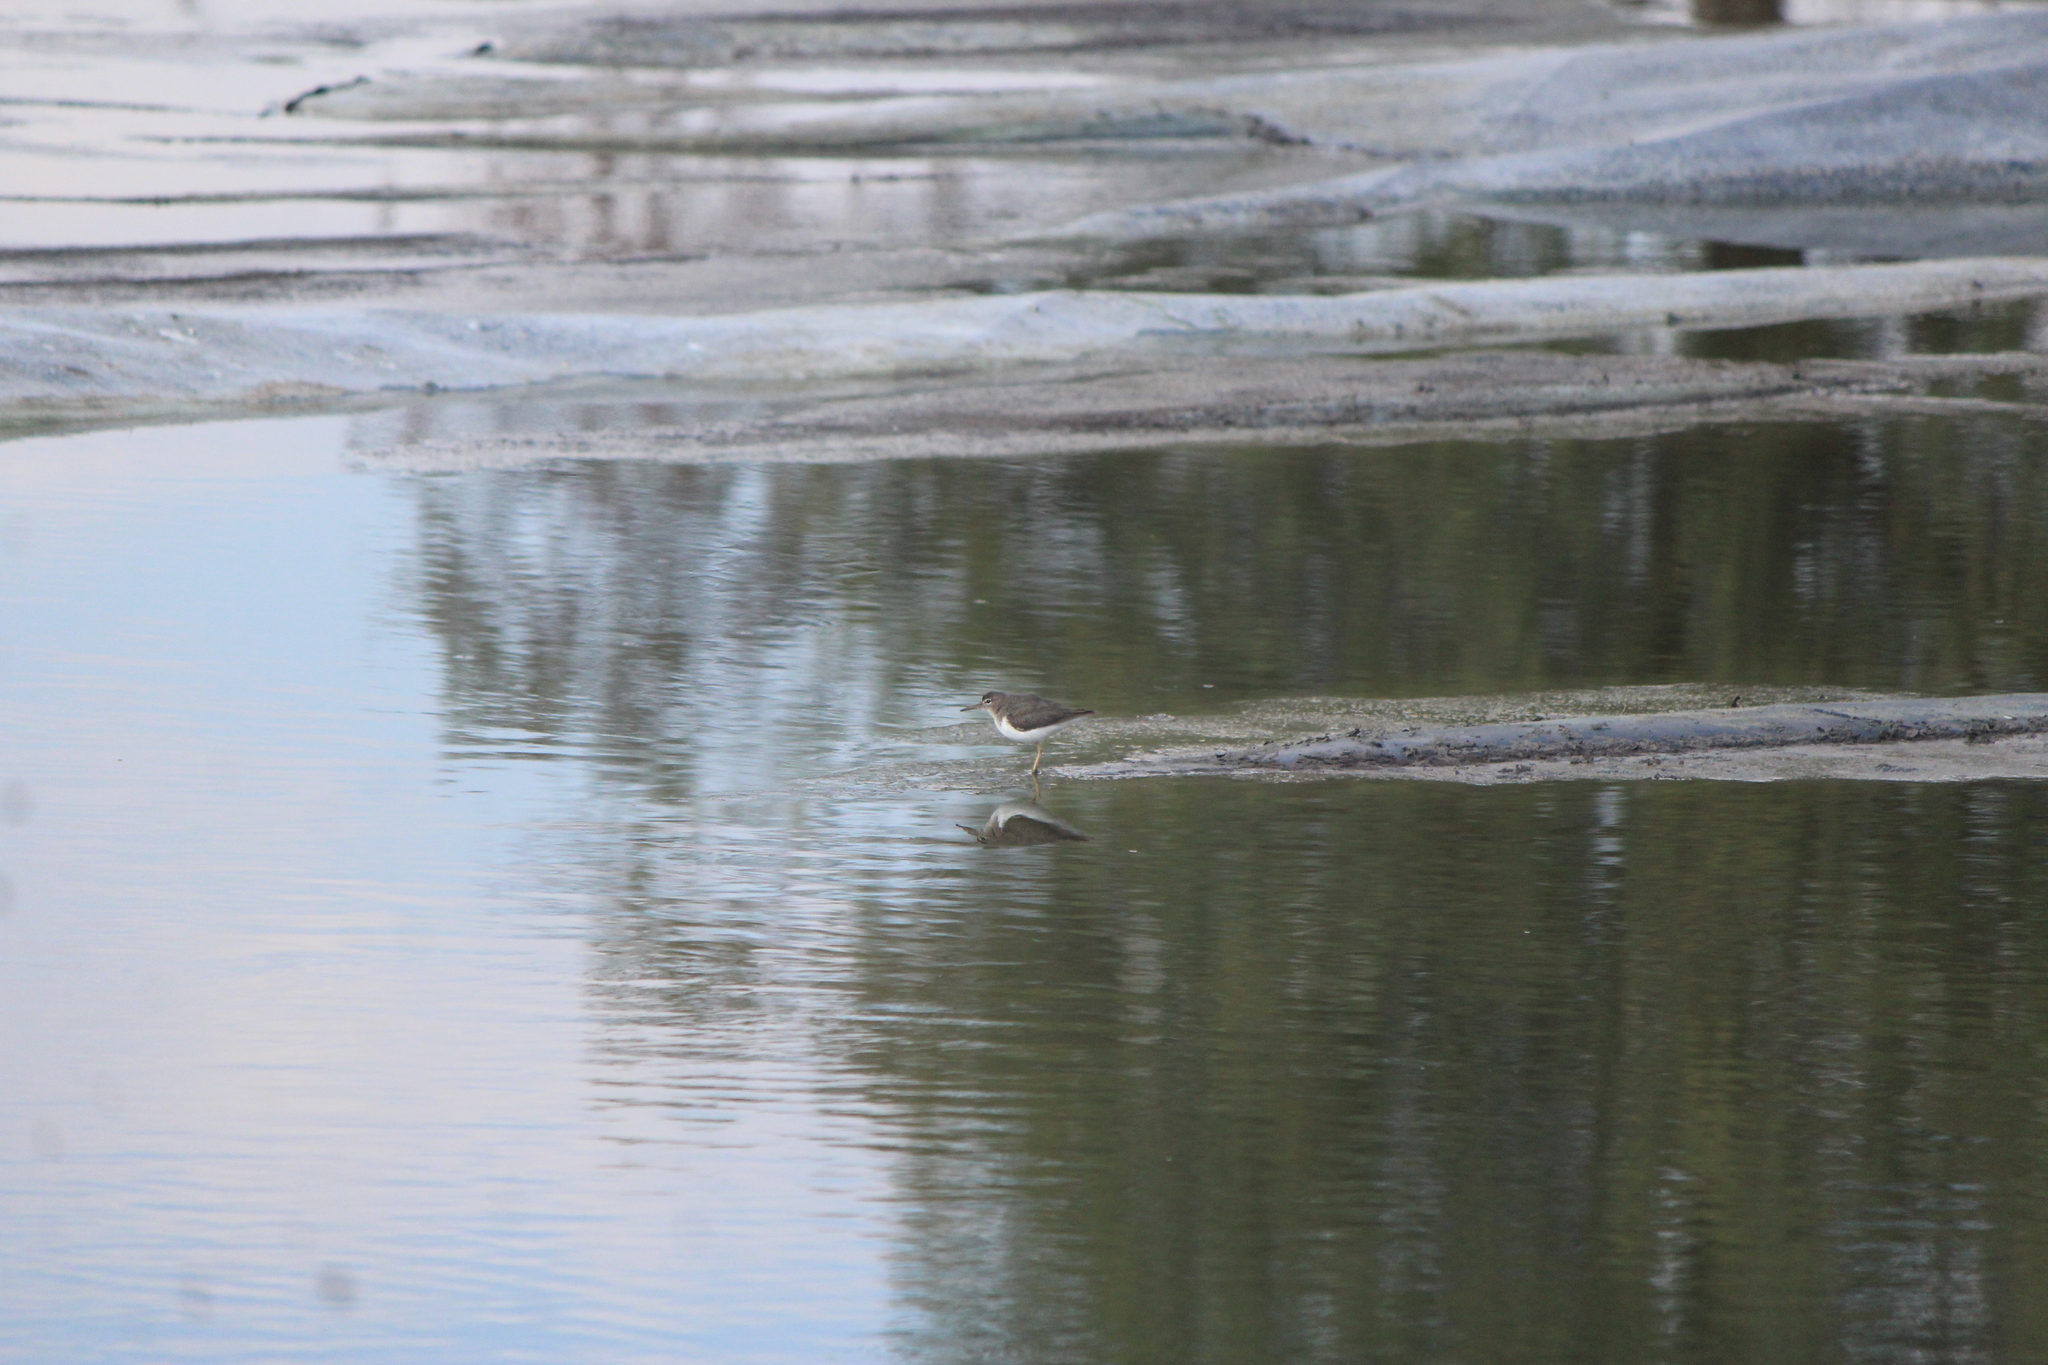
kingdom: Animalia
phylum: Chordata
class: Aves
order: Charadriiformes
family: Scolopacidae
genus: Actitis
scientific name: Actitis macularius
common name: Spotted sandpiper
